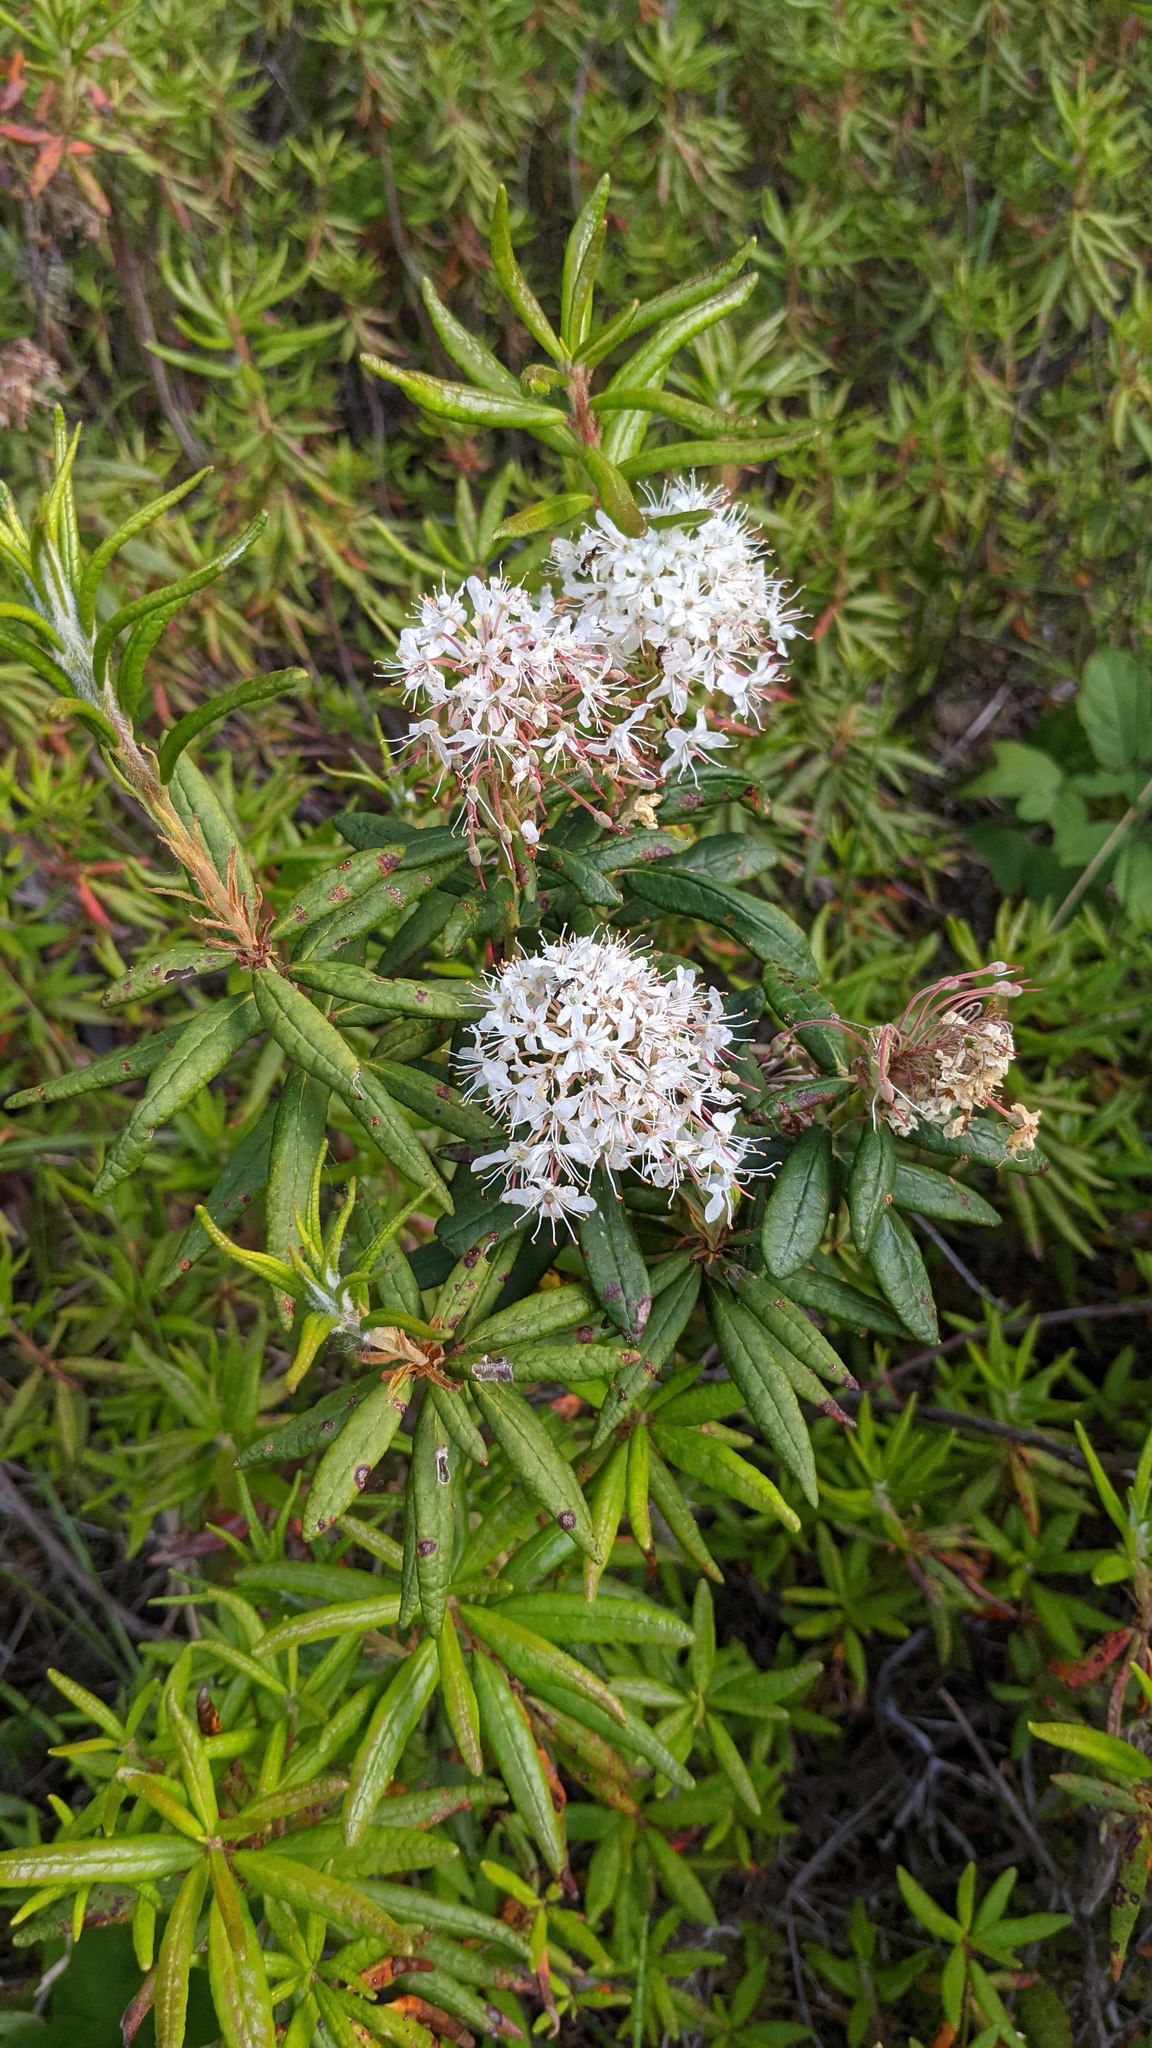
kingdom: Plantae
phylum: Tracheophyta
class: Magnoliopsida
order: Ericales
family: Ericaceae
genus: Rhododendron
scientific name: Rhododendron groenlandicum
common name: Bog labrador tea
